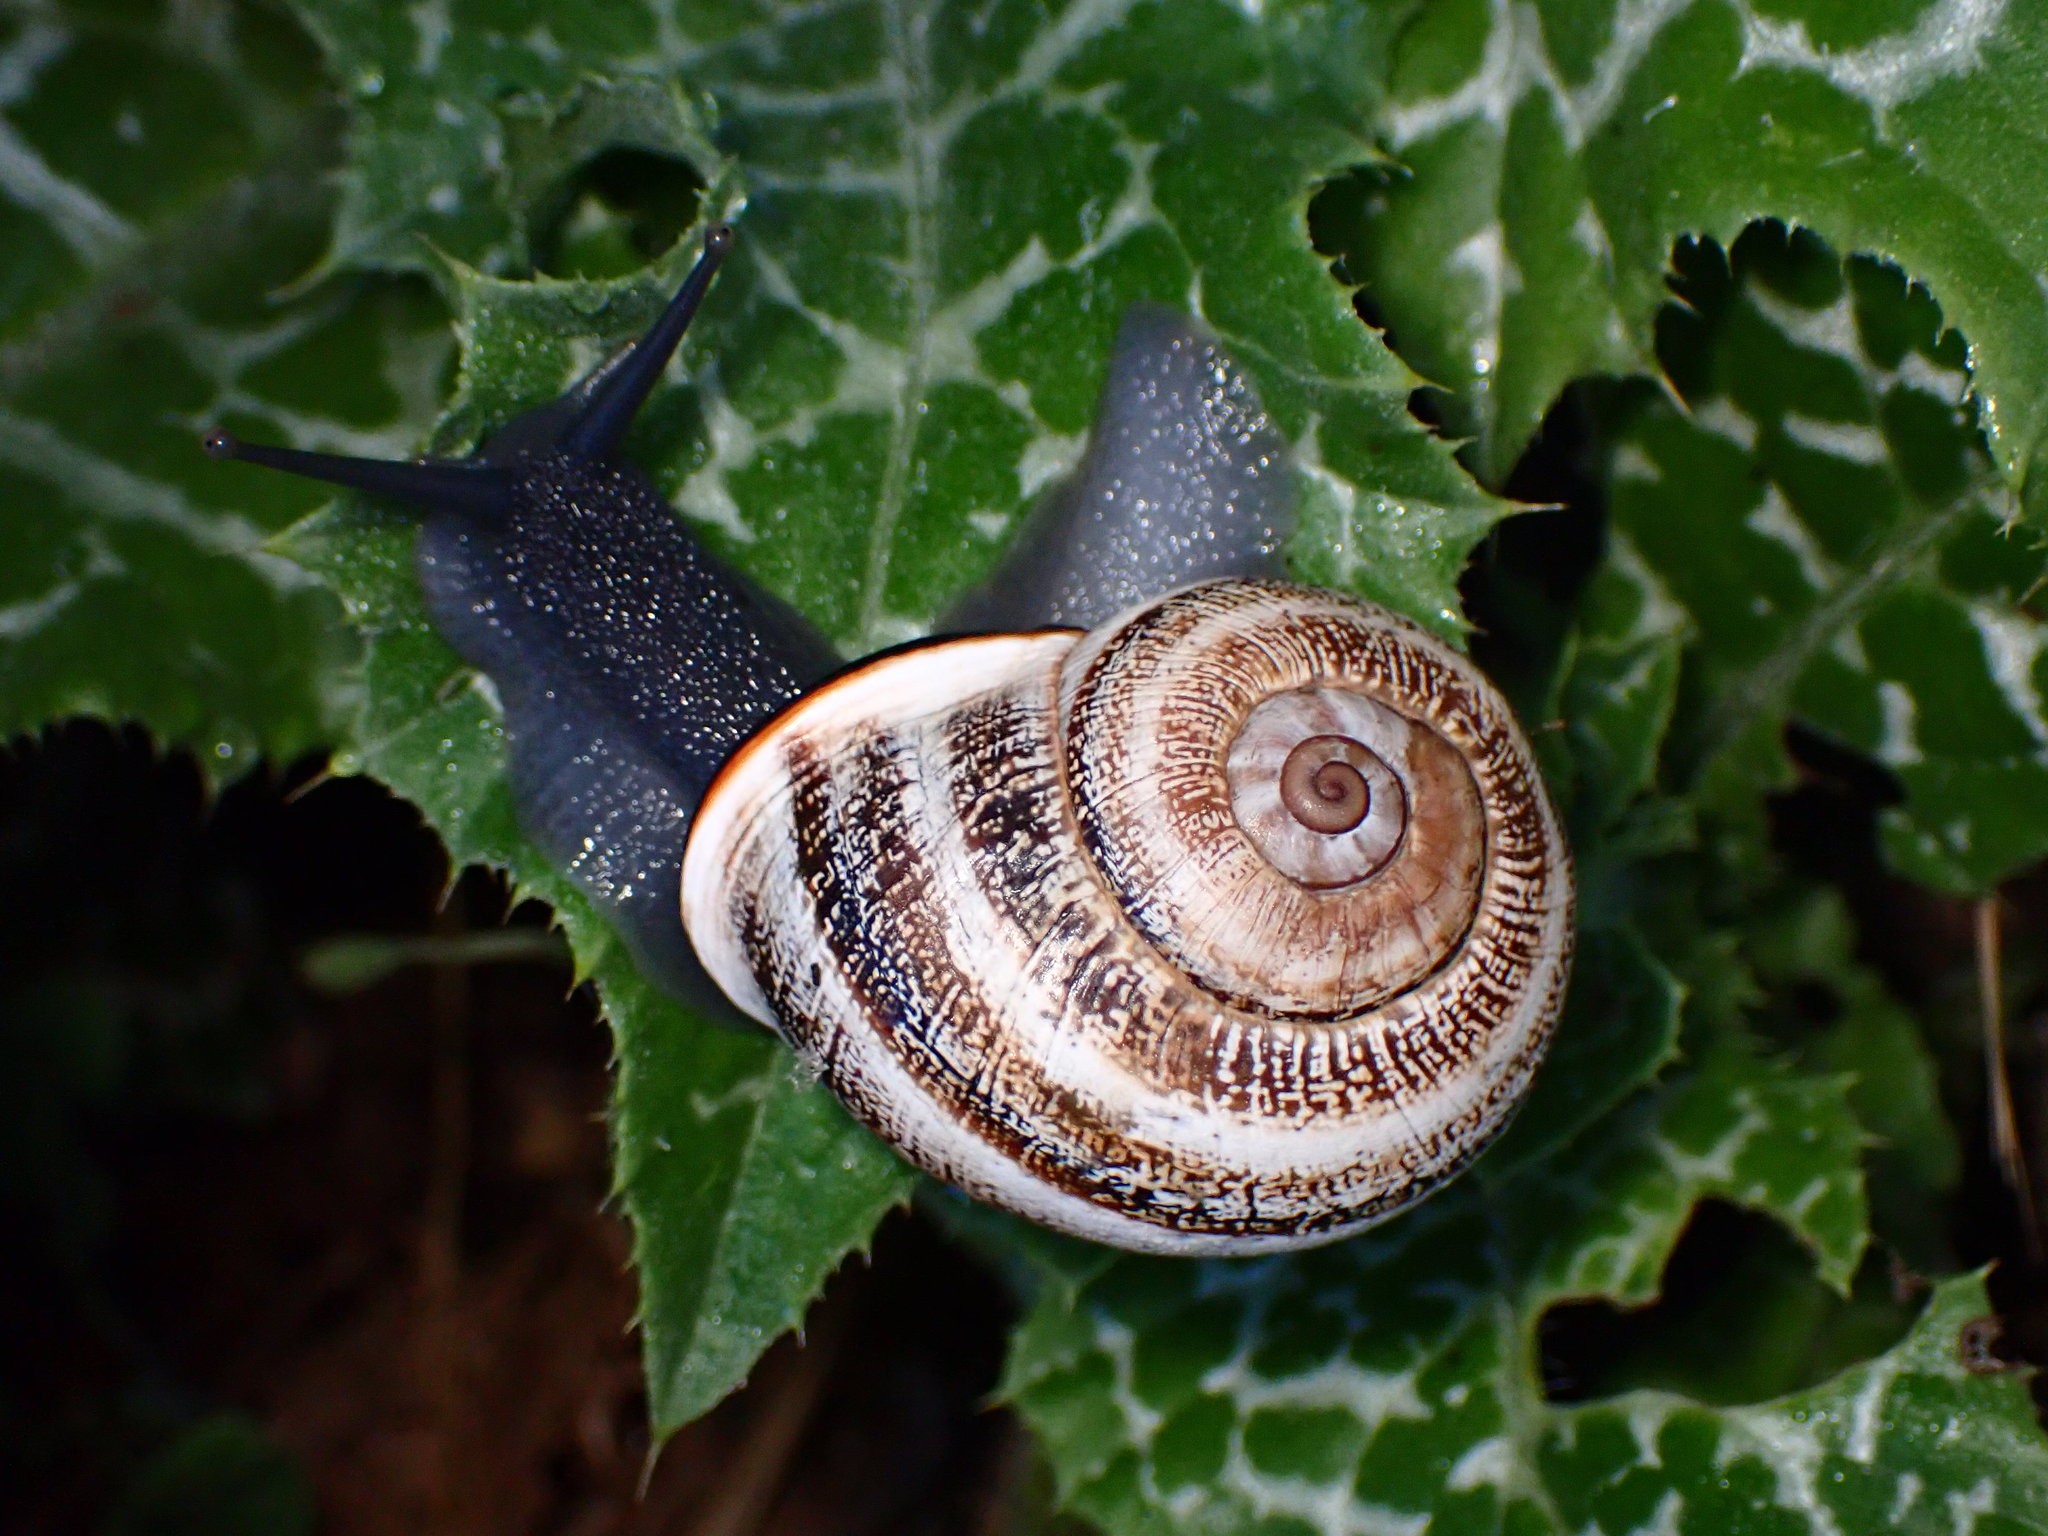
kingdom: Animalia
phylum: Mollusca
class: Gastropoda
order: Stylommatophora
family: Helicidae
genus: Otala
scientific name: Otala lactea
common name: Milk snail
